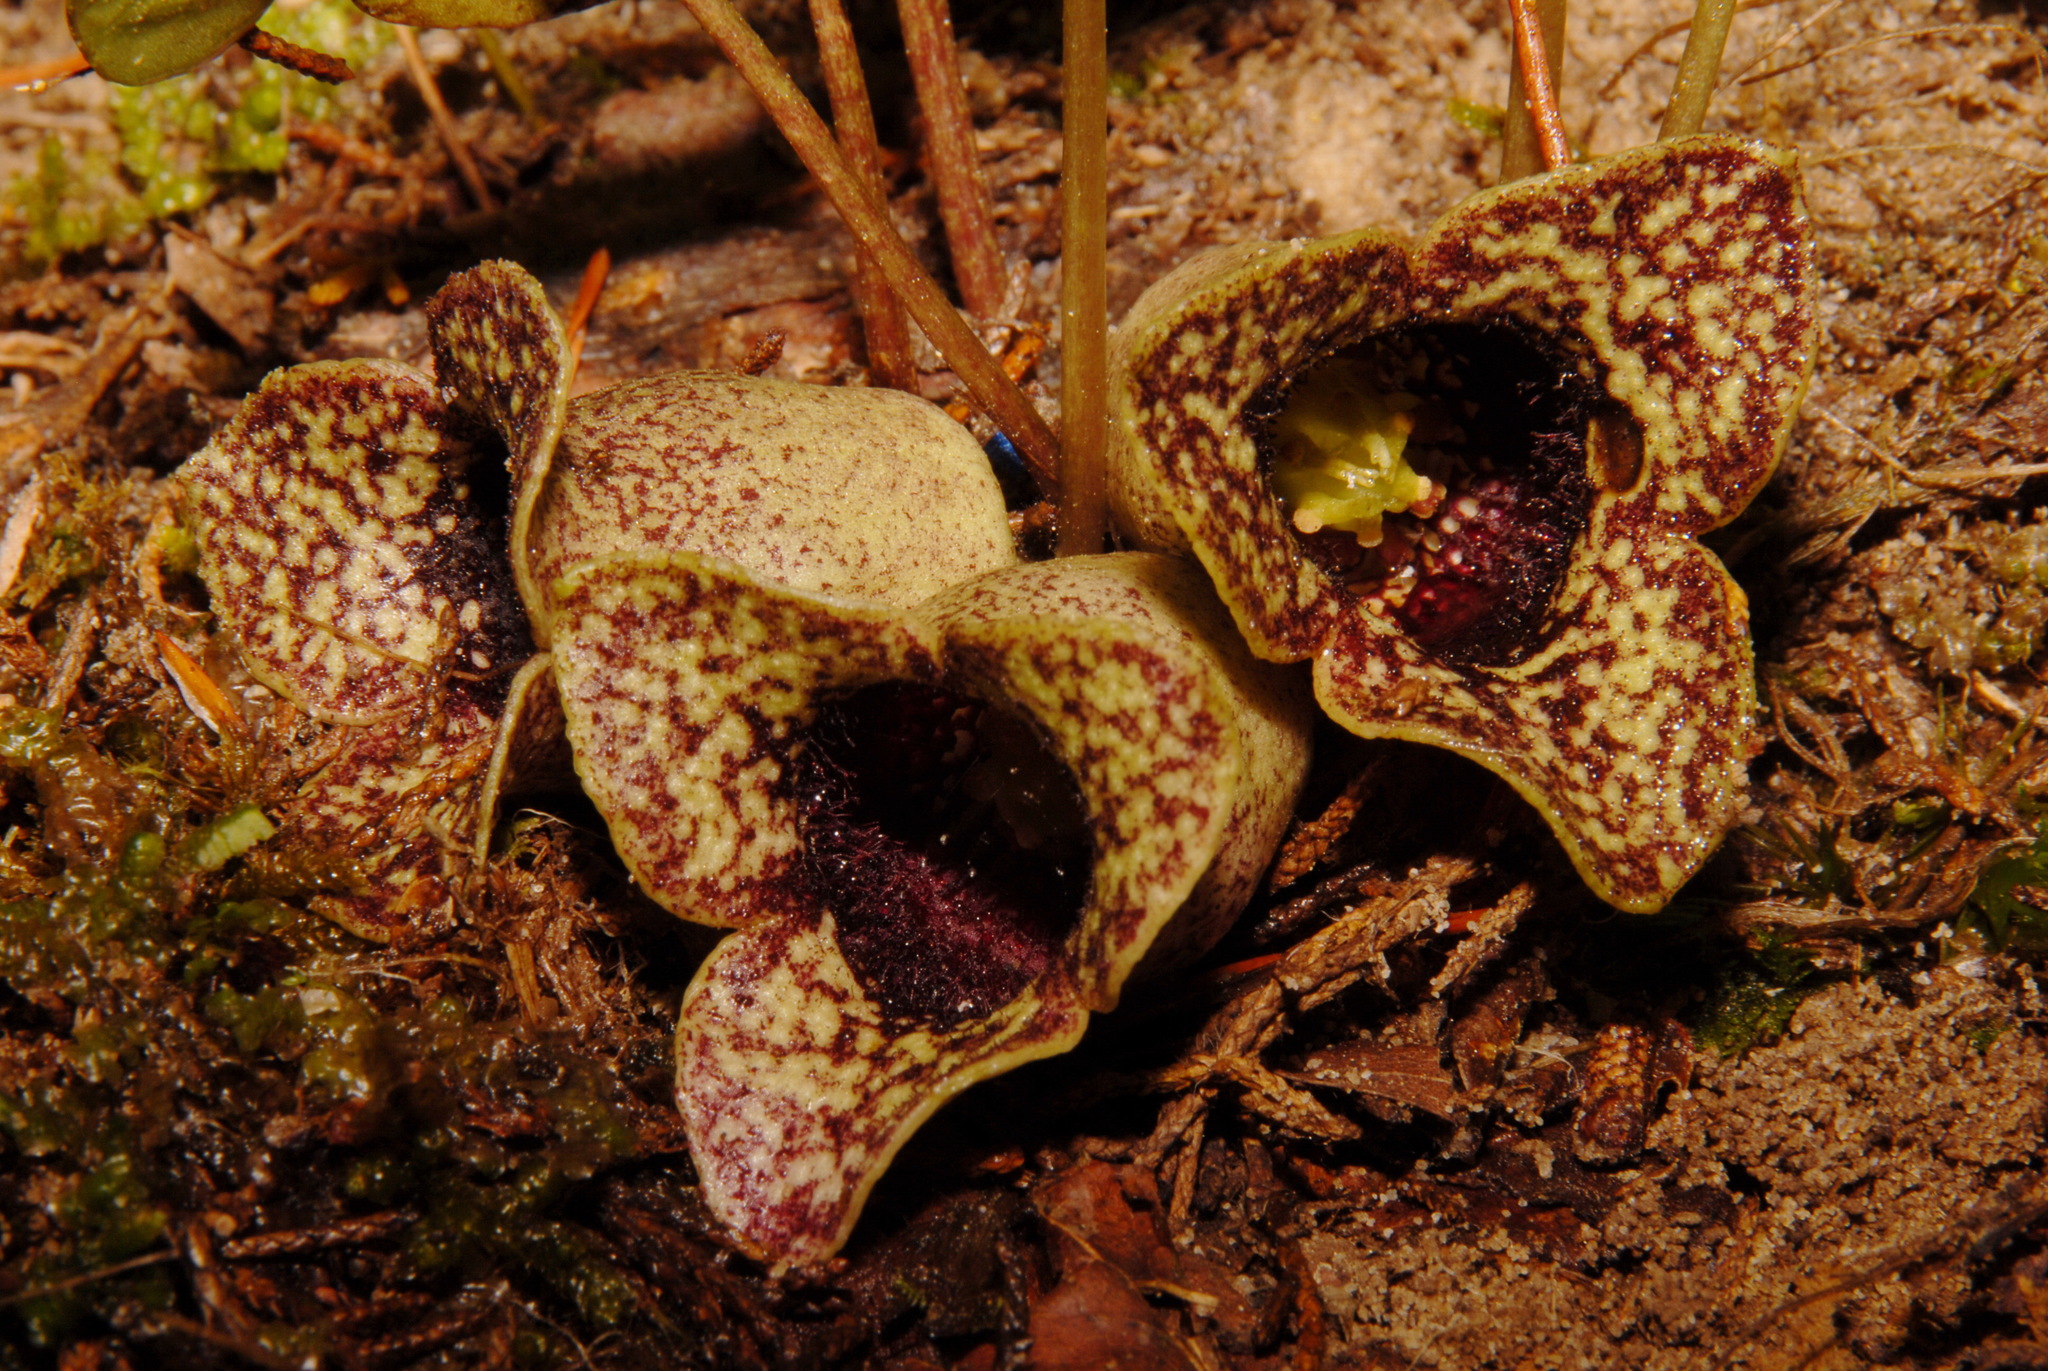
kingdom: Plantae
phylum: Tracheophyta
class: Magnoliopsida
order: Piperales
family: Aristolochiaceae
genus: Hexastylis
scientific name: Hexastylis shuttleworthii
